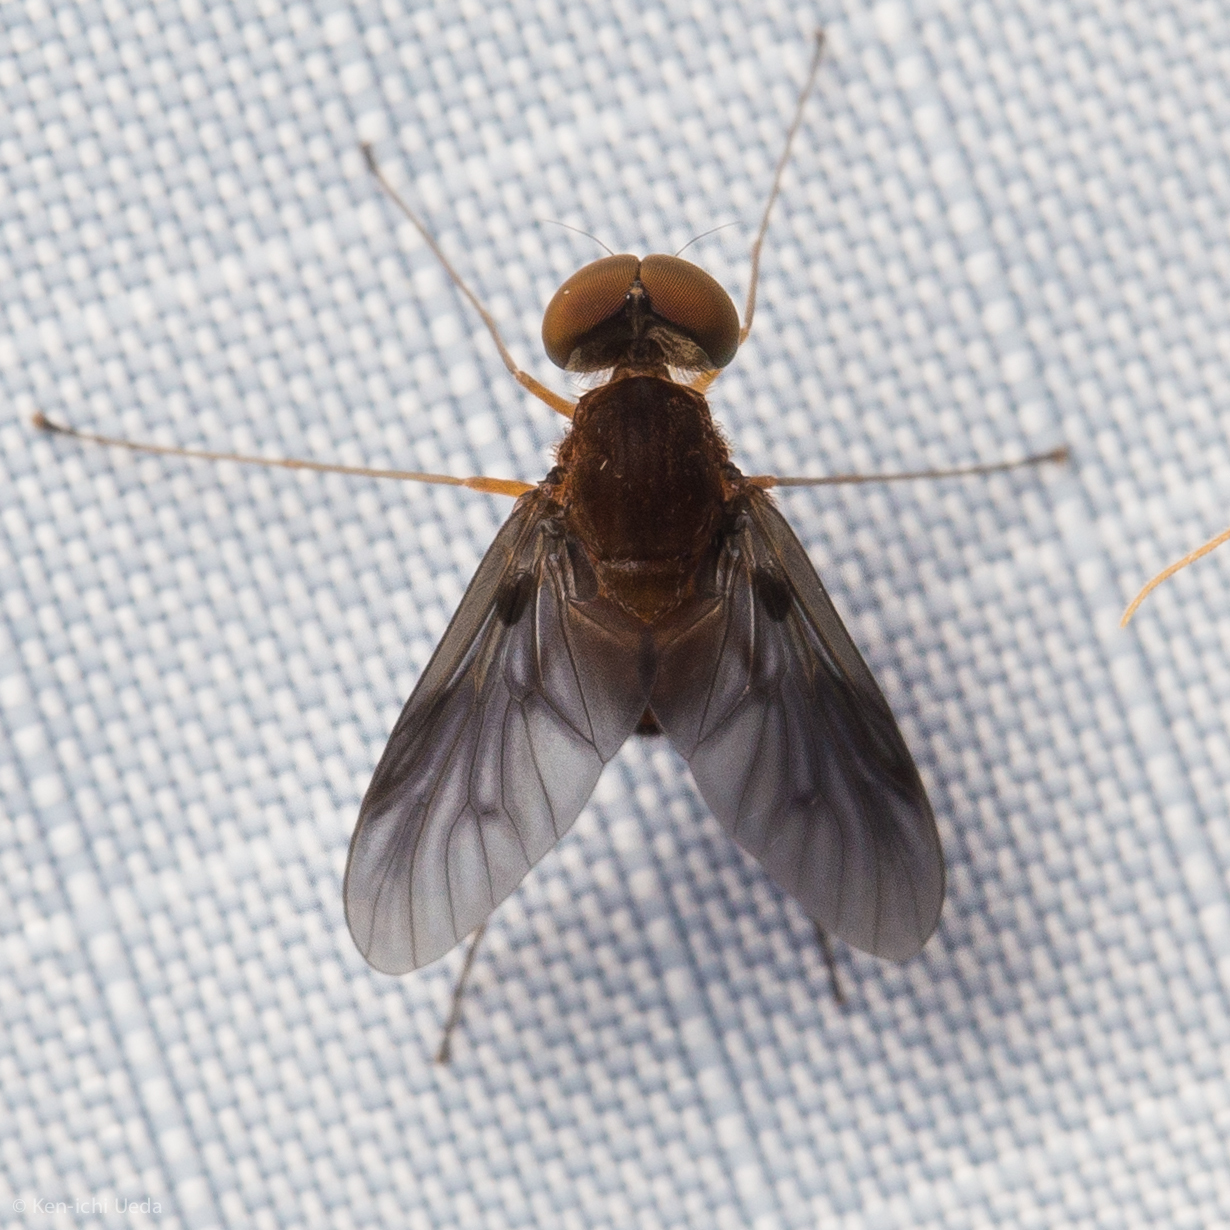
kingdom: Animalia
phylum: Arthropoda
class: Insecta
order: Diptera
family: Rhagionidae
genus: Chrysopilus
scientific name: Chrysopilus quadratus
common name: Quadrate snipe fly
